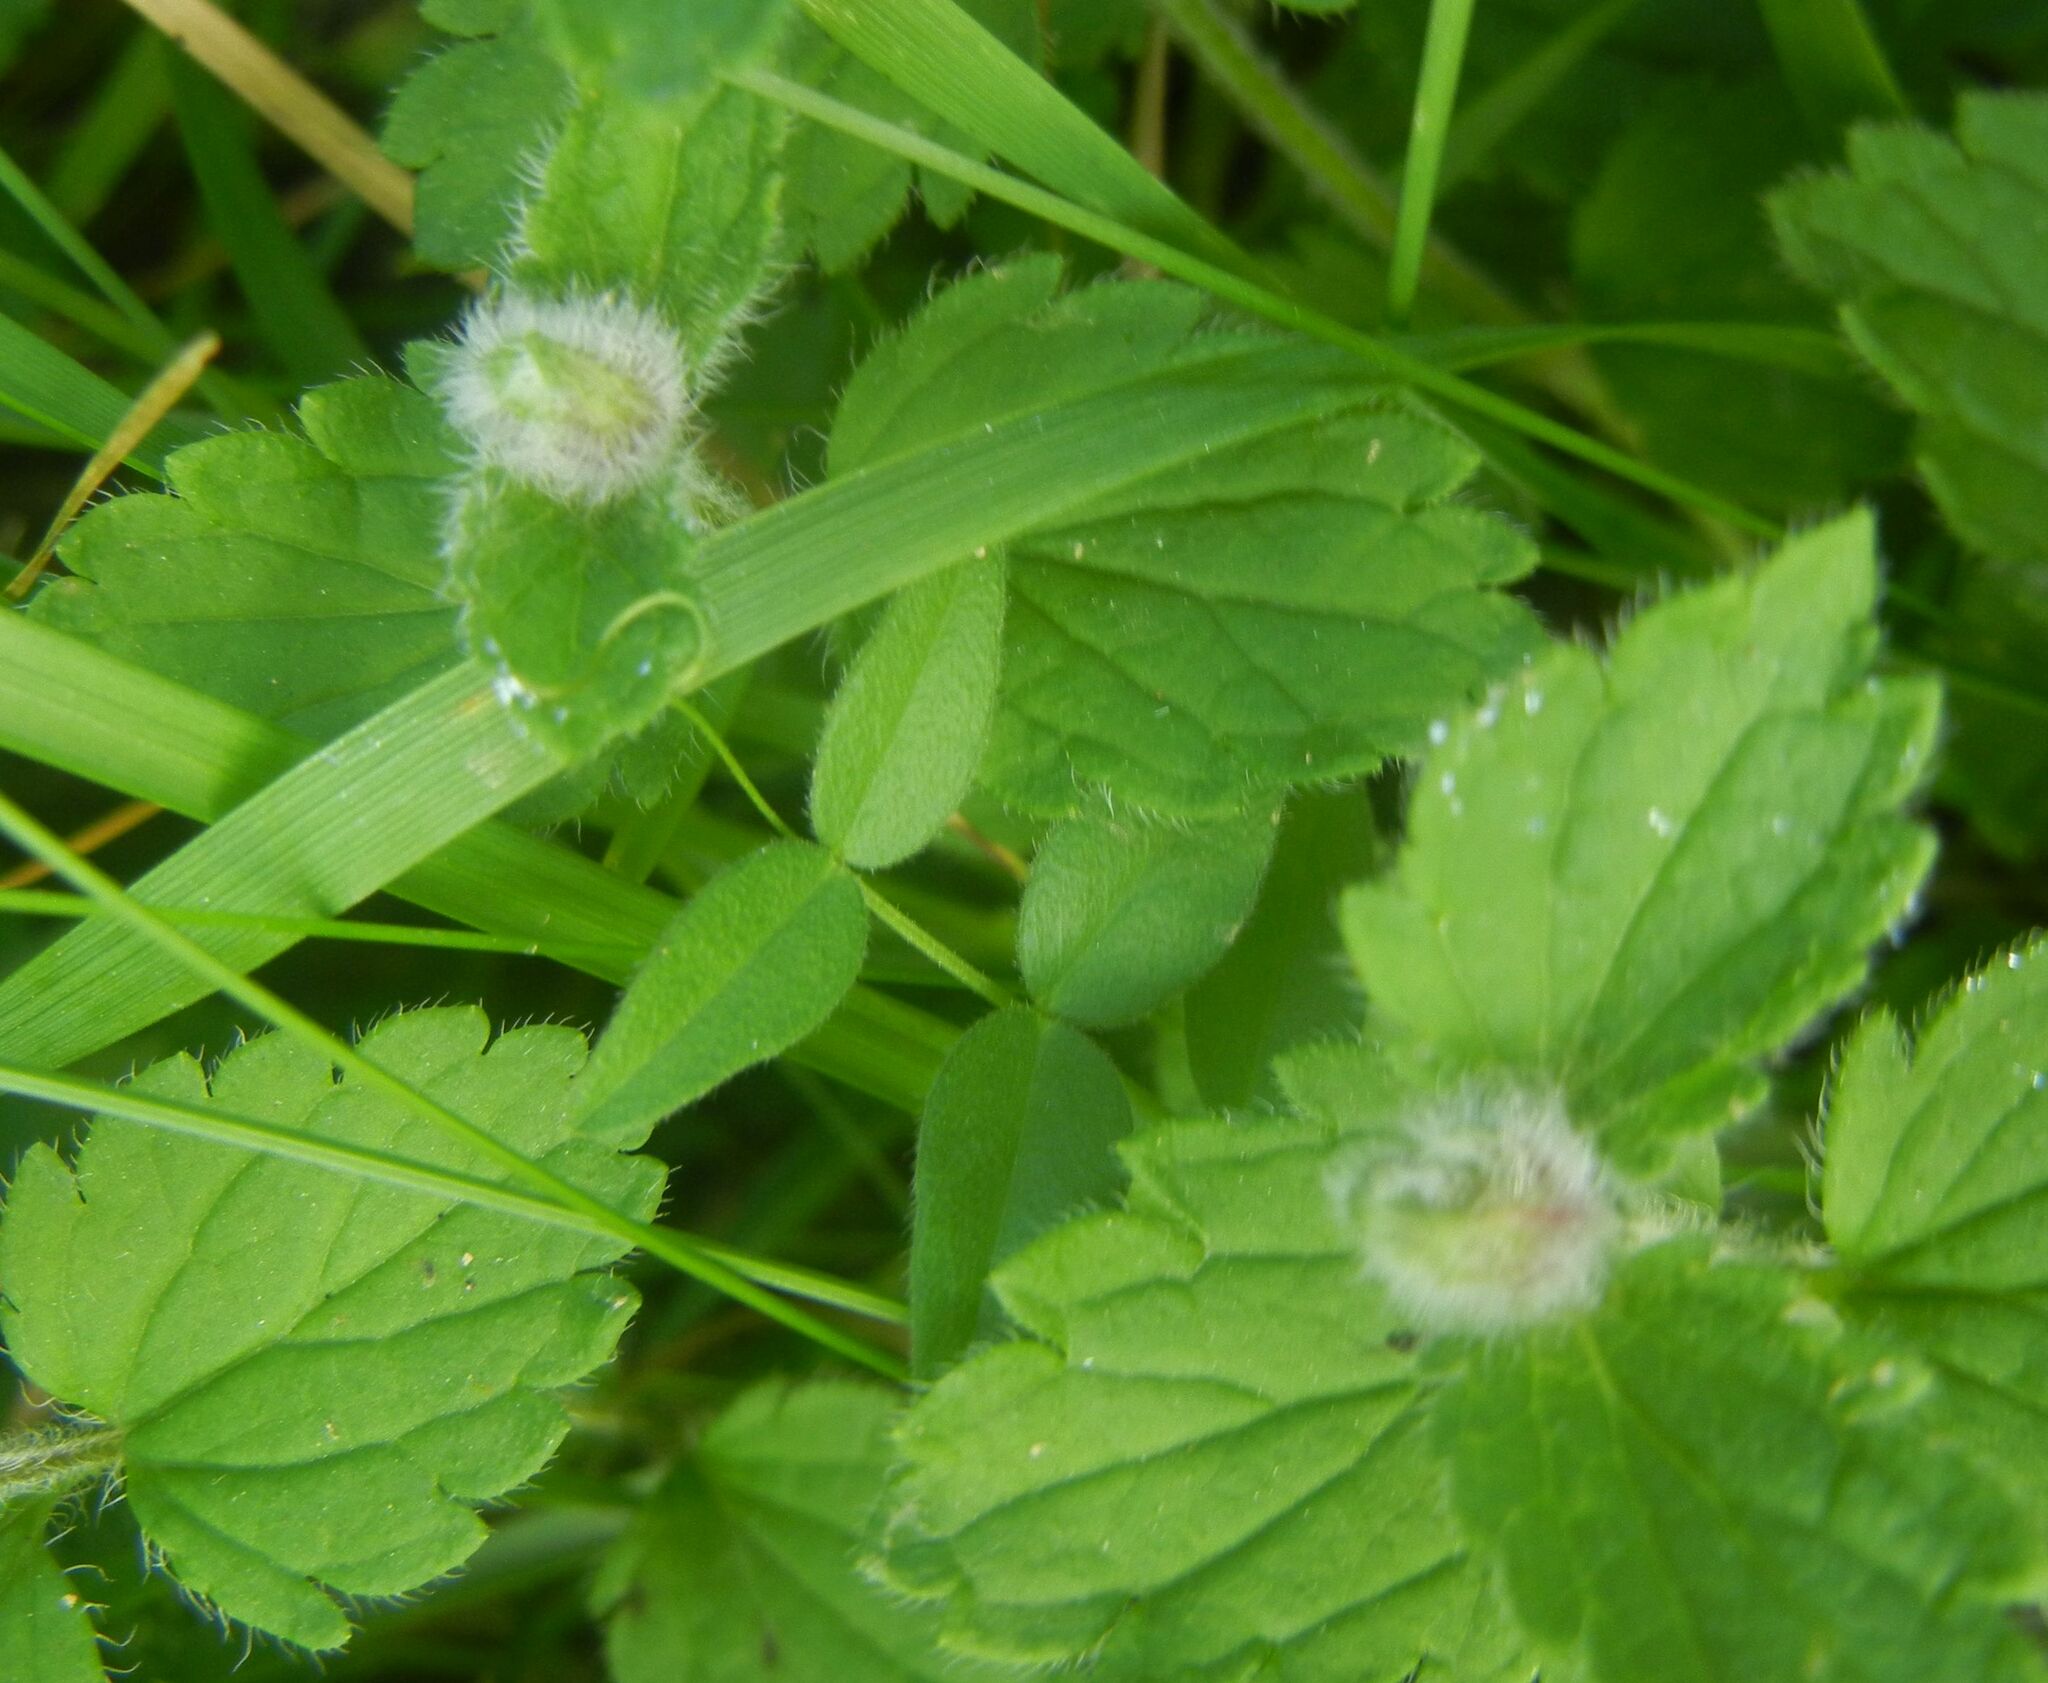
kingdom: Animalia
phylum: Arthropoda
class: Insecta
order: Diptera
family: Cecidomyiidae
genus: Jaapiella
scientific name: Jaapiella veronicae
